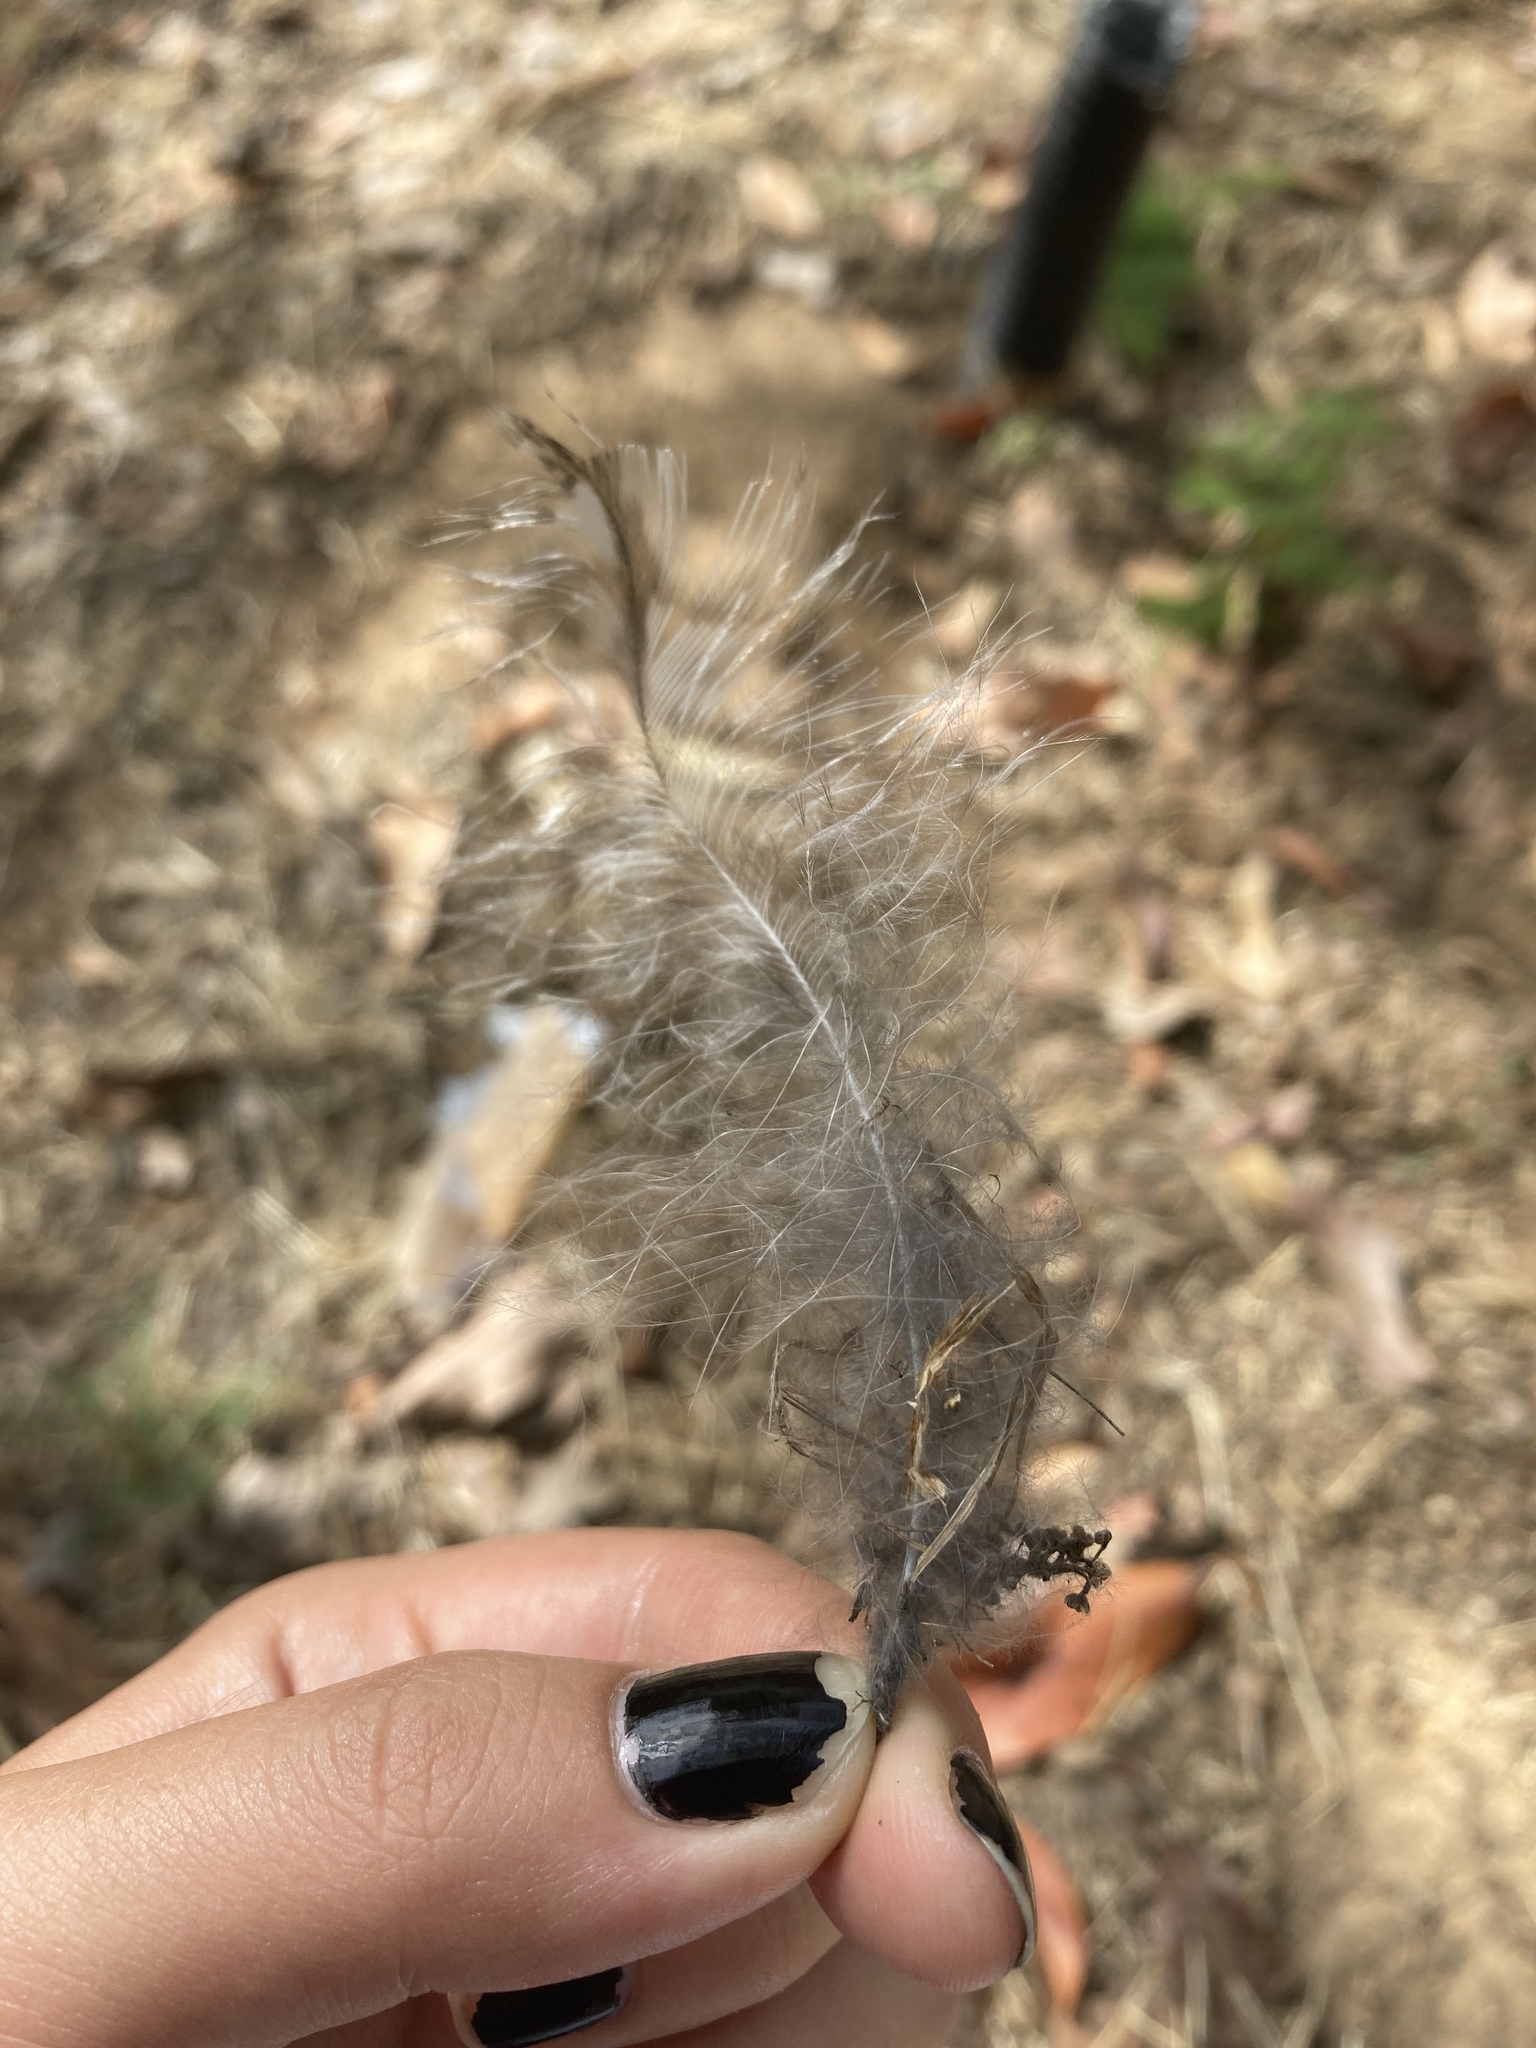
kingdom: Animalia
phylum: Chordata
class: Aves
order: Strigiformes
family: Strigidae
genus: Strix
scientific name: Strix aluco
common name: Tawny owl
